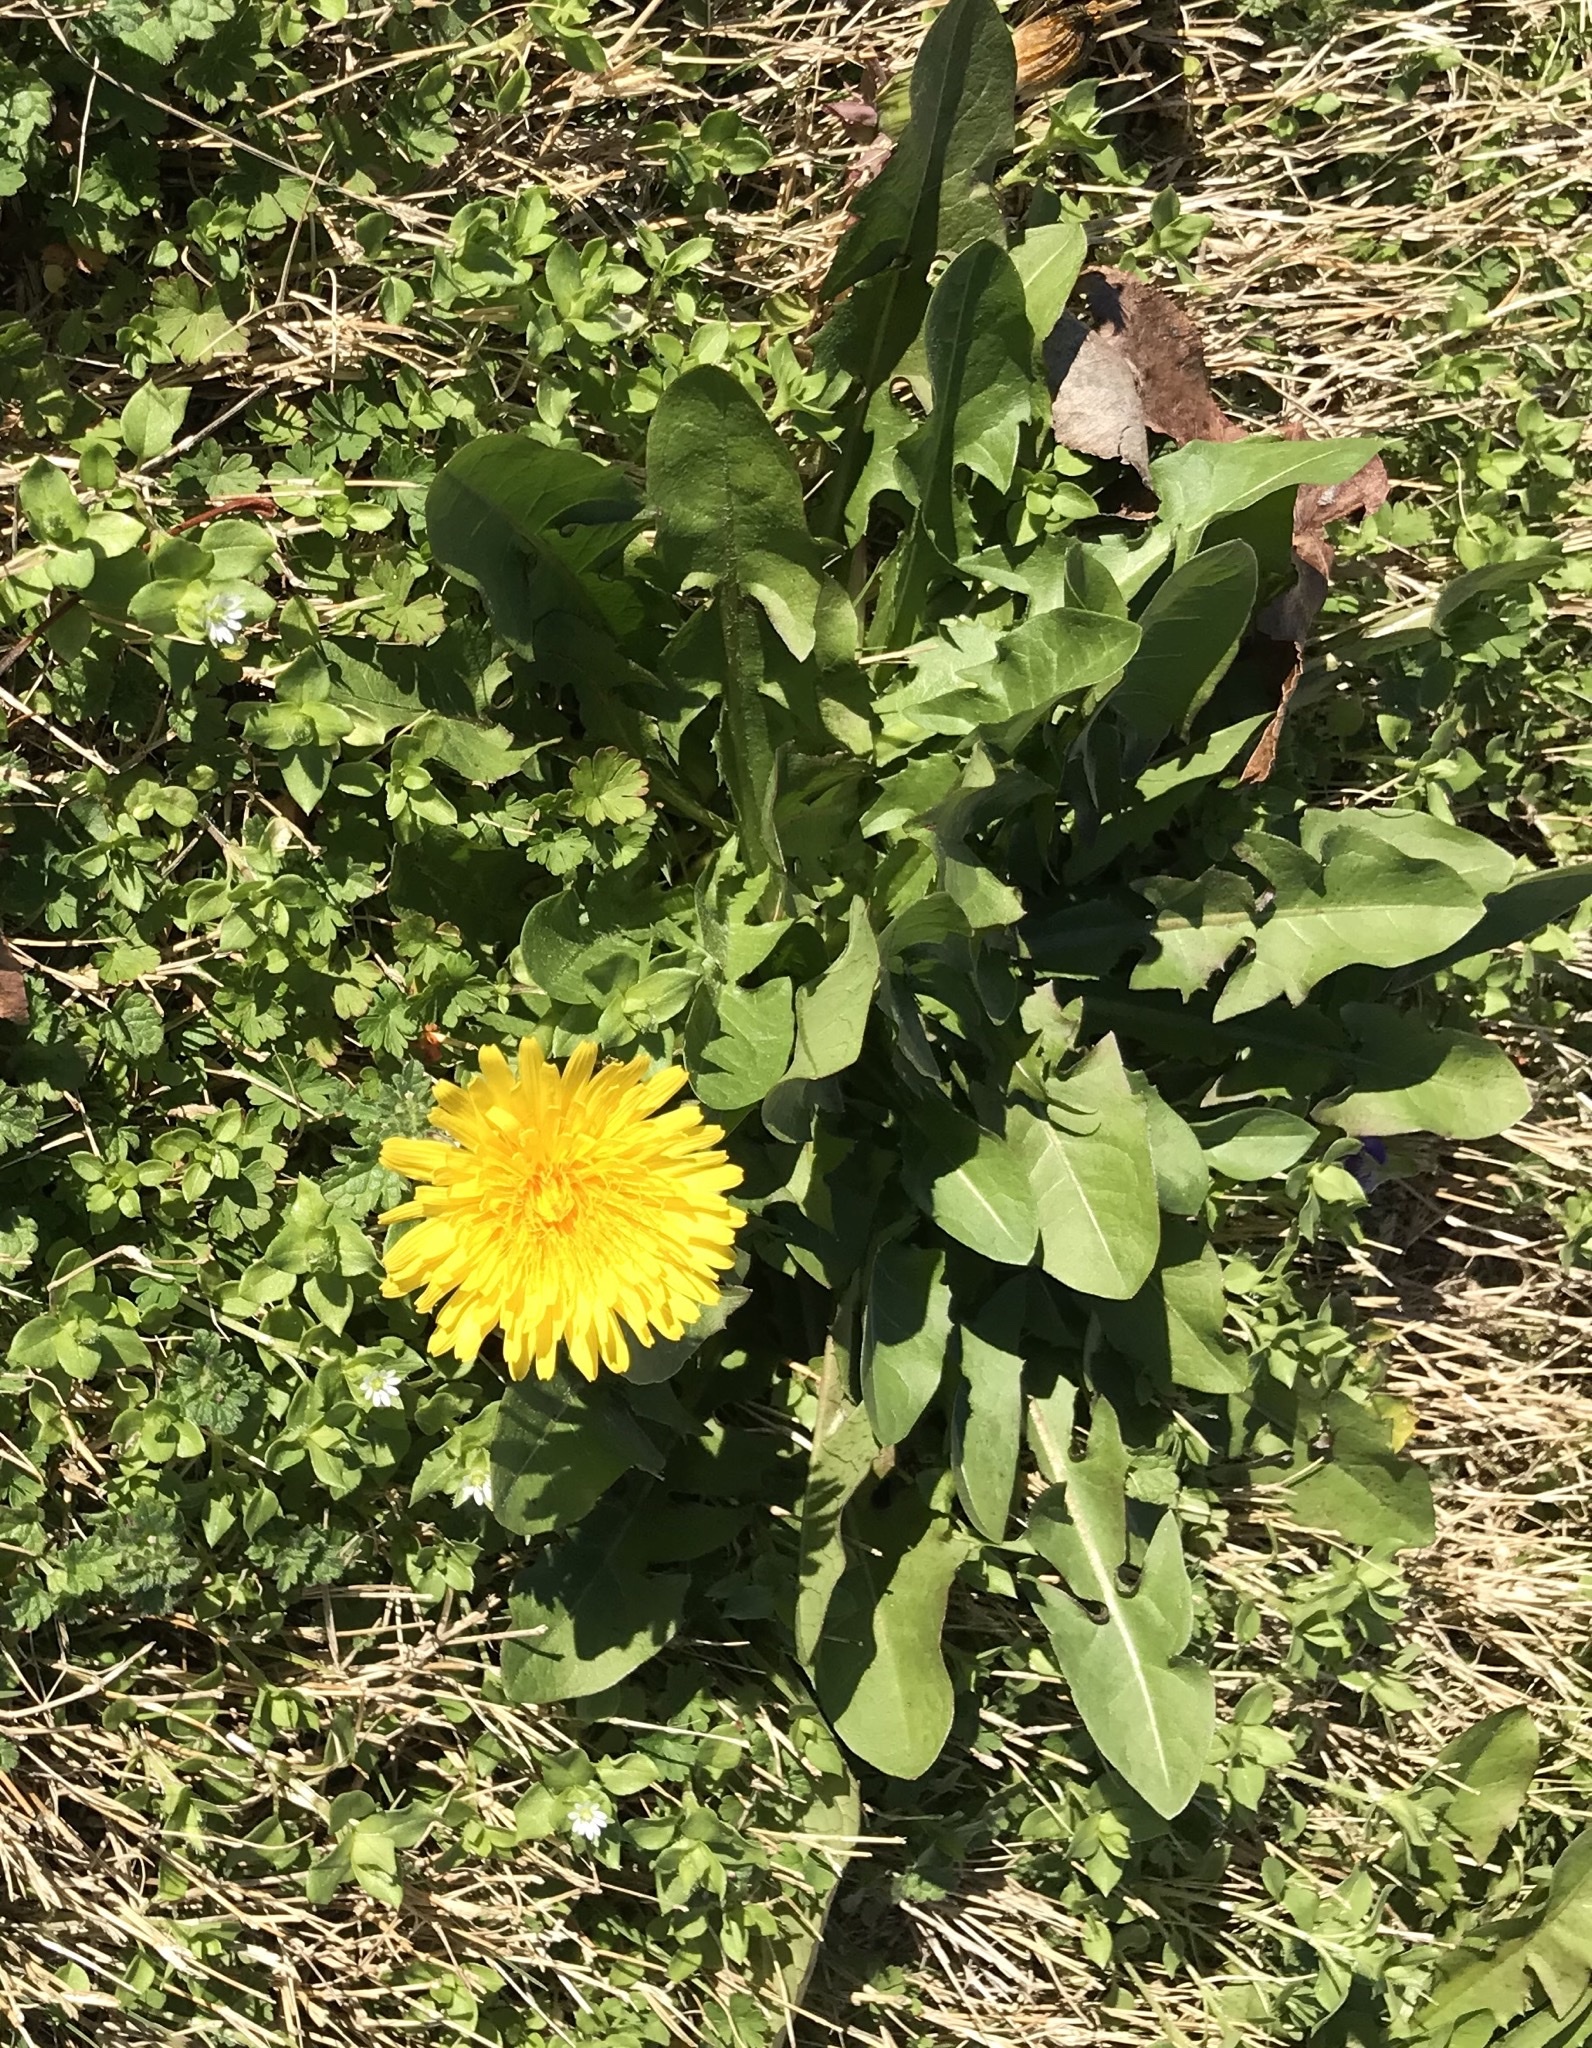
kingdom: Plantae
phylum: Tracheophyta
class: Magnoliopsida
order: Asterales
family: Asteraceae
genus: Taraxacum
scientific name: Taraxacum officinale
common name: Common dandelion
